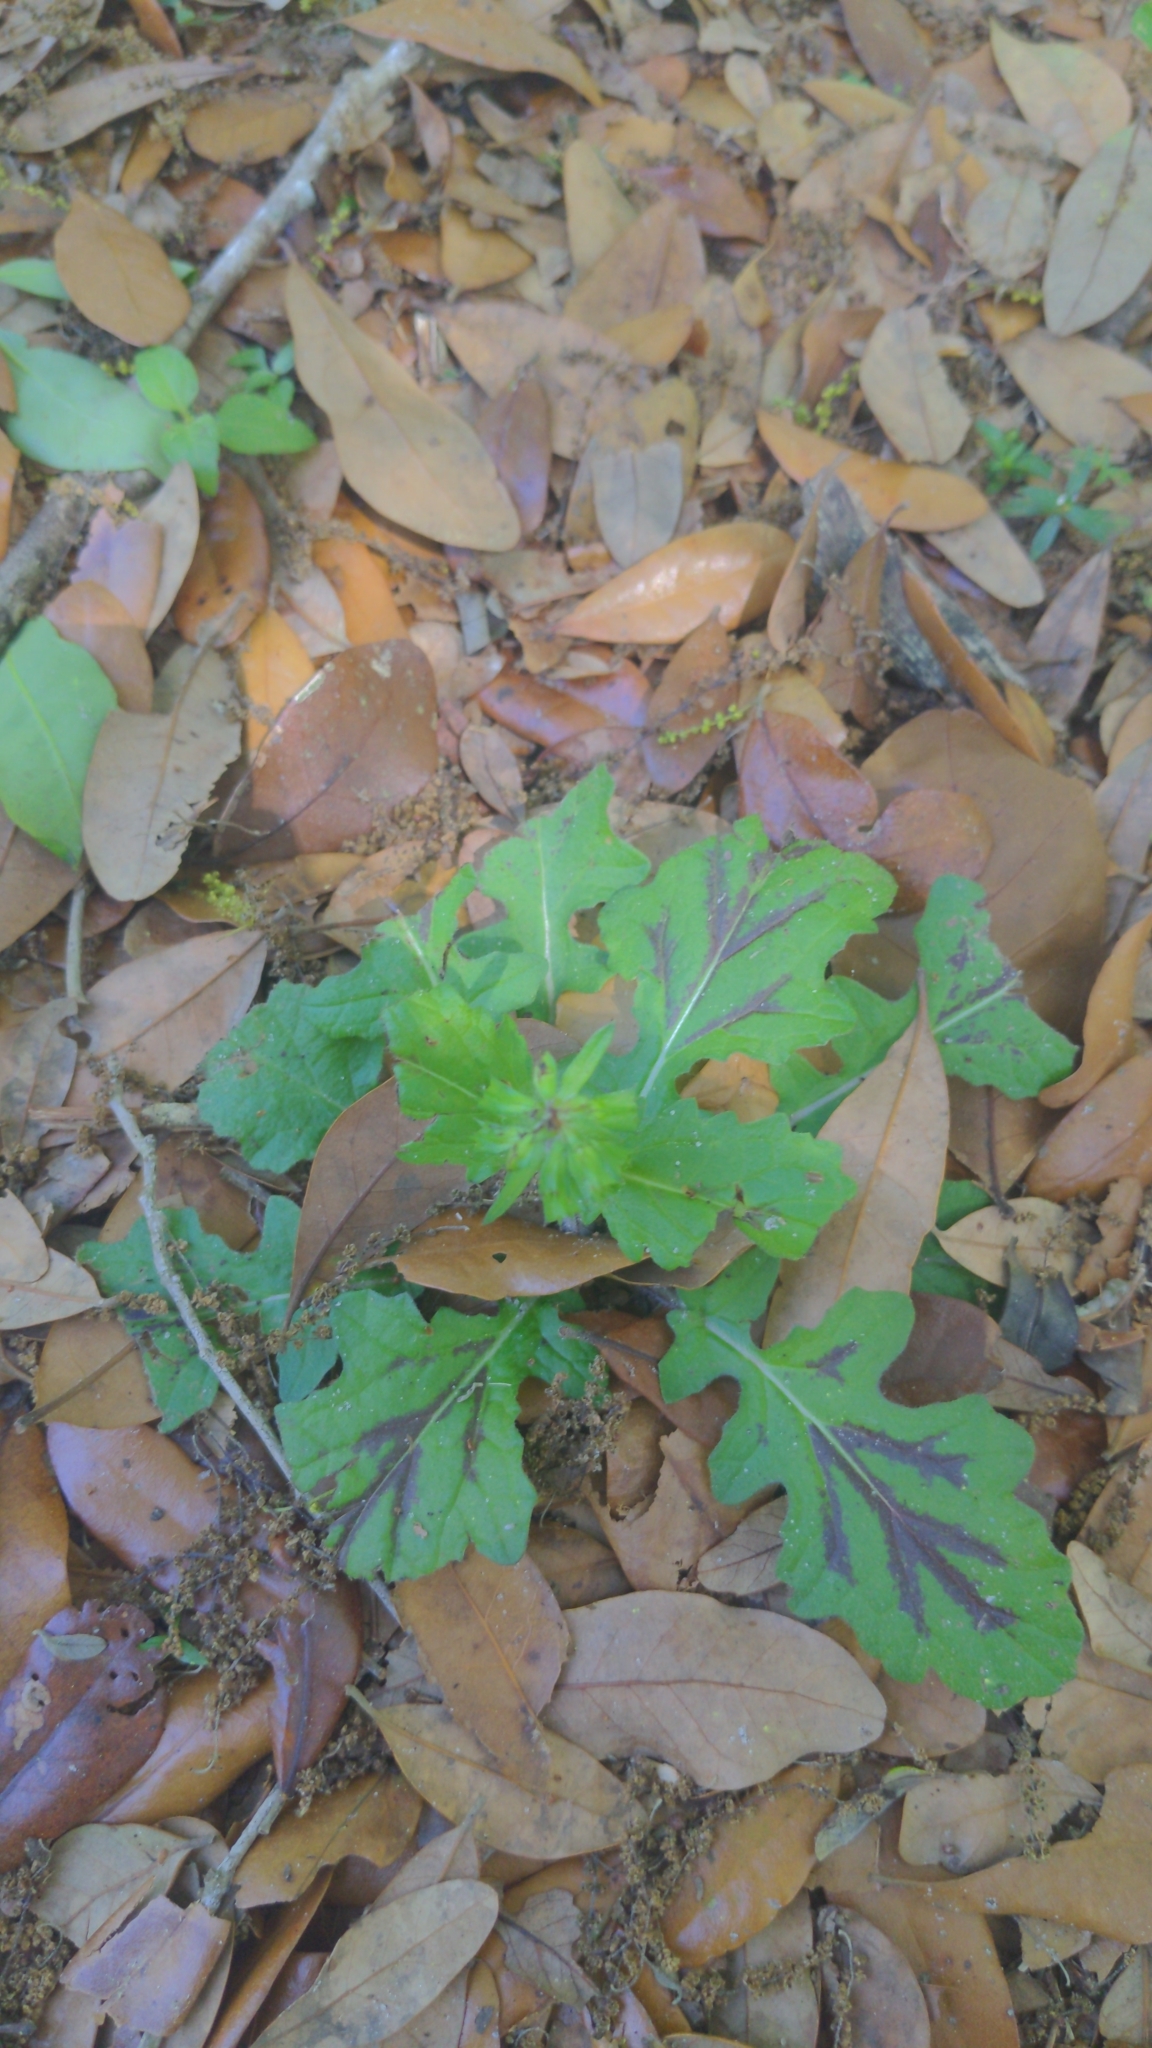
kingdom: Plantae
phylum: Tracheophyta
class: Magnoliopsida
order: Lamiales
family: Lamiaceae
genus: Salvia
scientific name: Salvia lyrata
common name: Cancerweed
